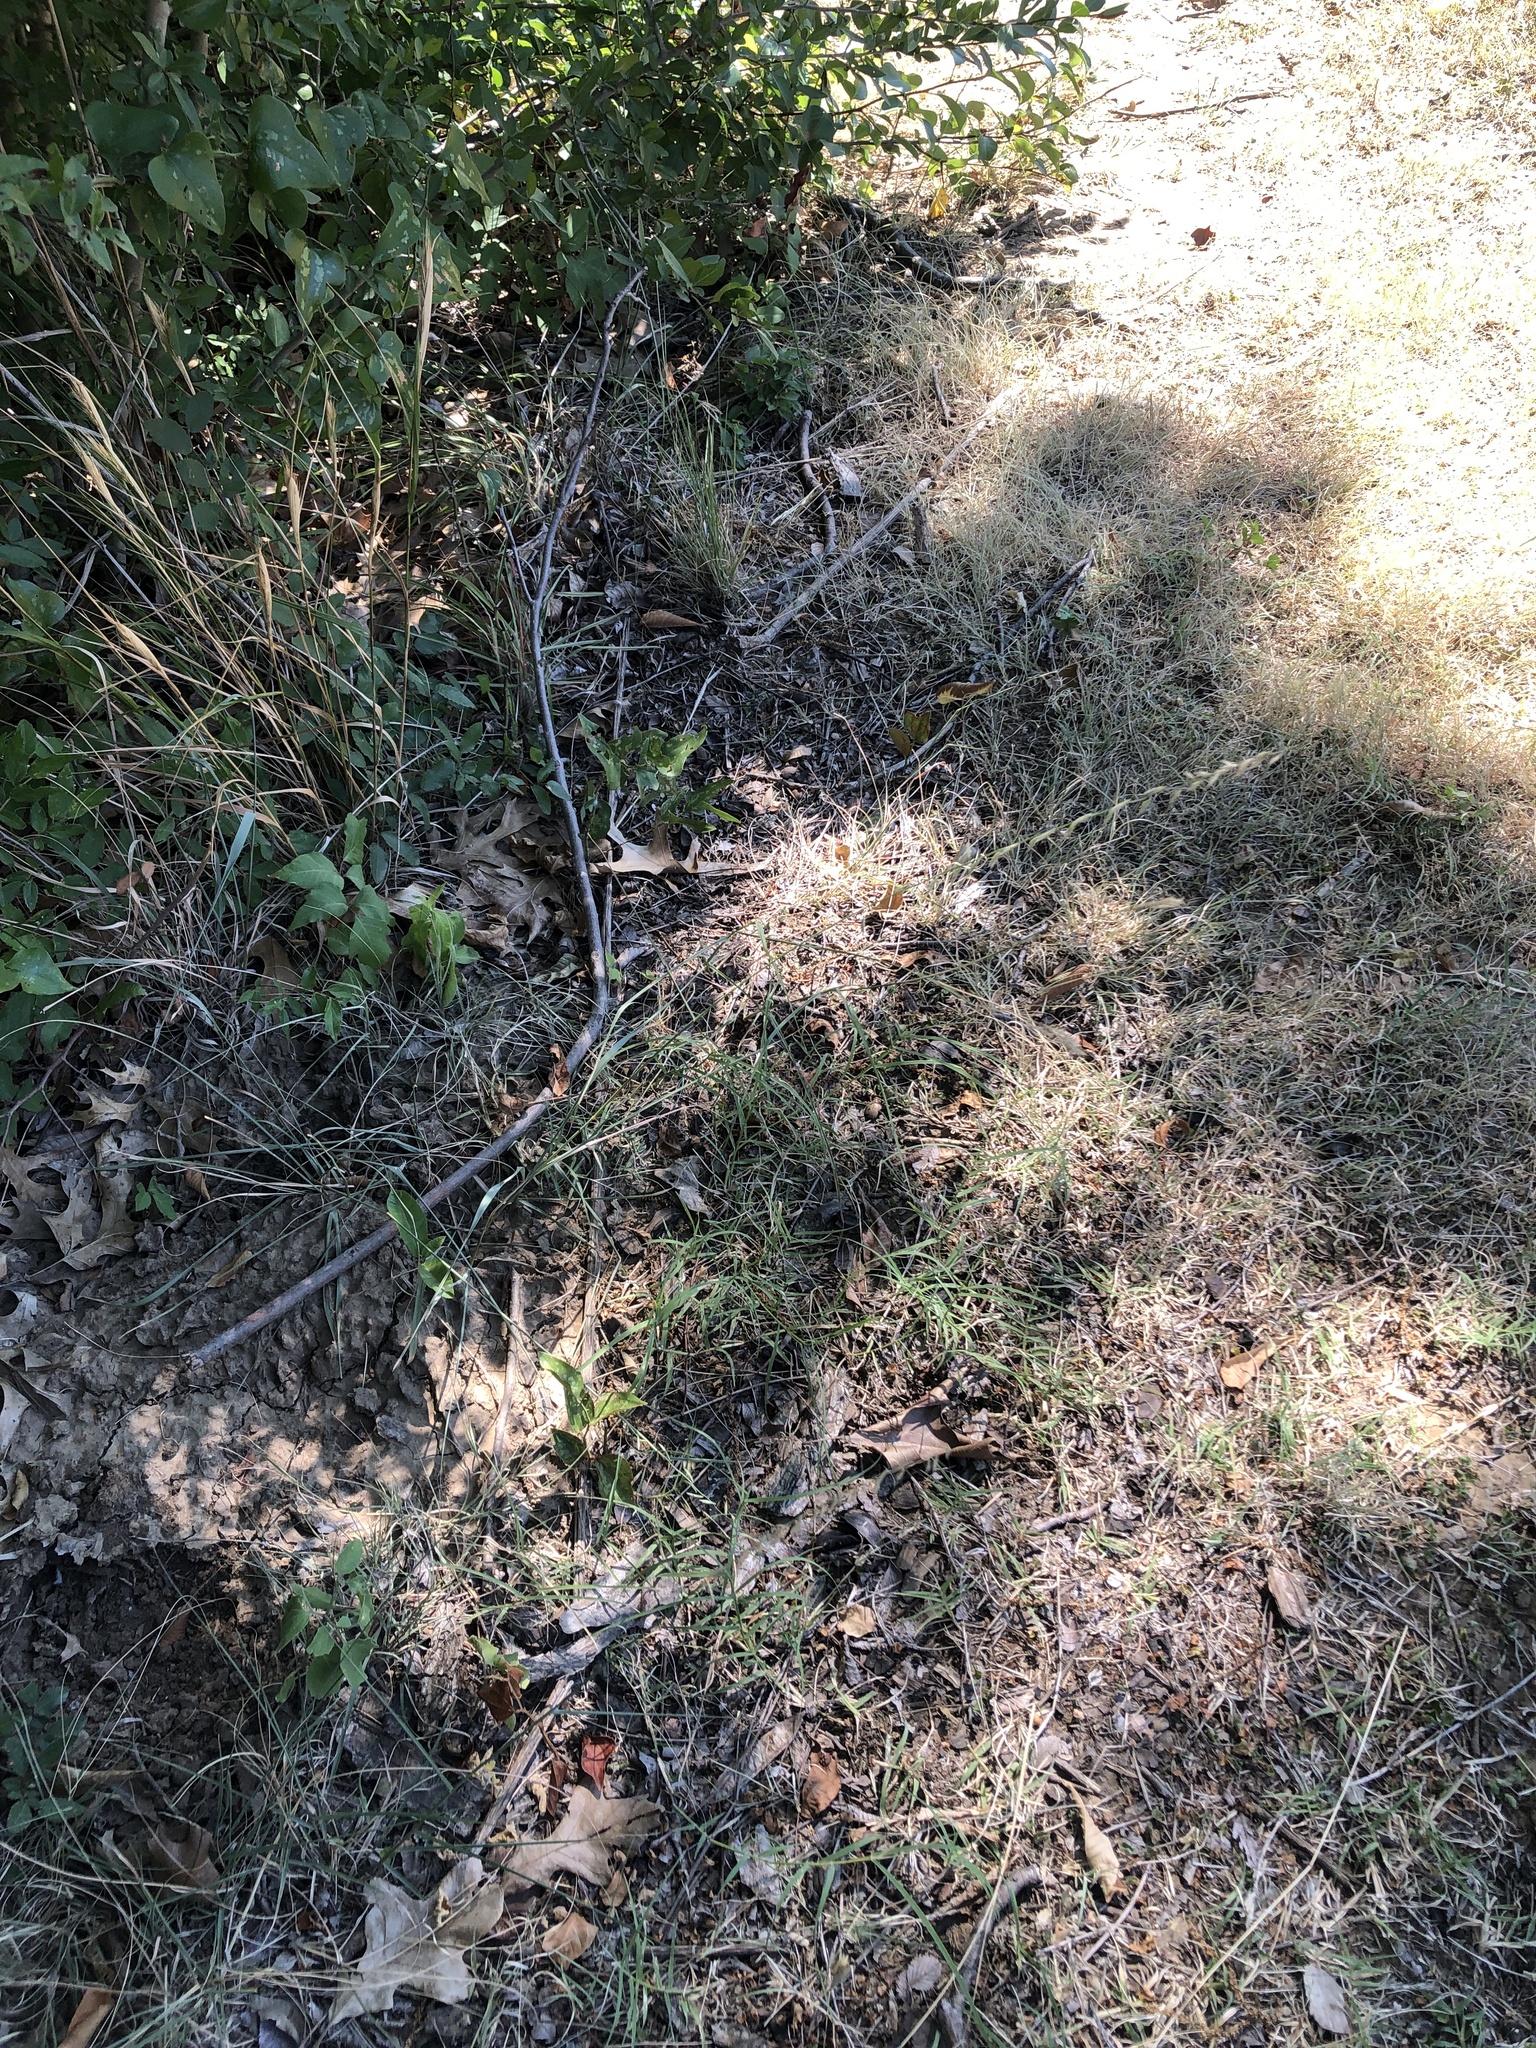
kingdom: Plantae
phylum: Tracheophyta
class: Liliopsida
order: Poales
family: Poaceae
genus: Bouteloua
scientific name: Bouteloua curtipendula
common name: Side-oats grama
